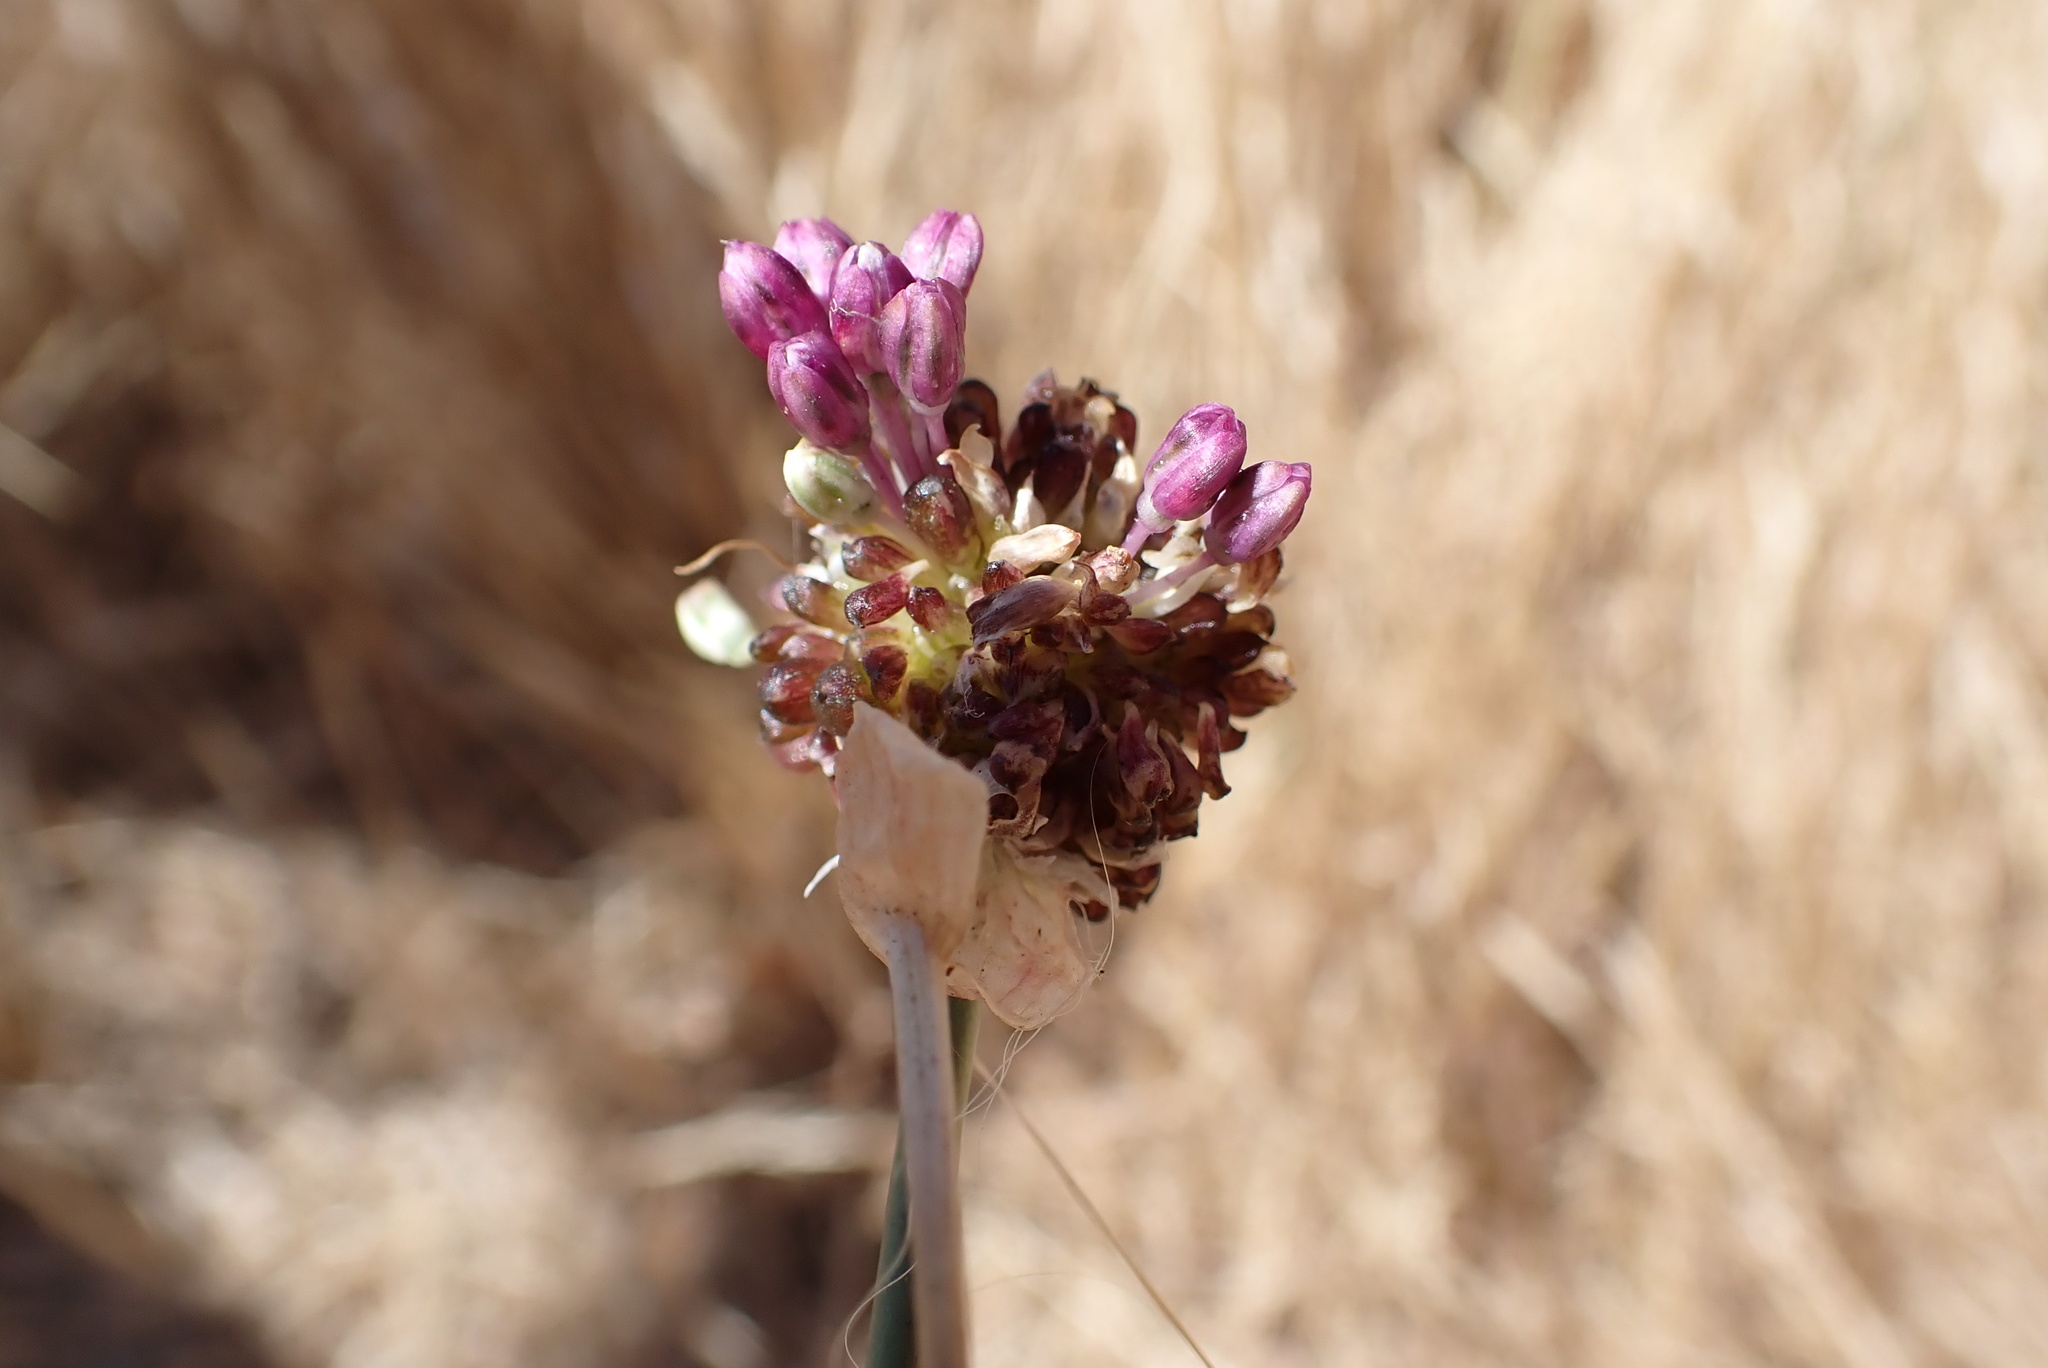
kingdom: Plantae
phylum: Tracheophyta
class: Liliopsida
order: Asparagales
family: Amaryllidaceae
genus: Allium
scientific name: Allium vineale
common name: Crow garlic
